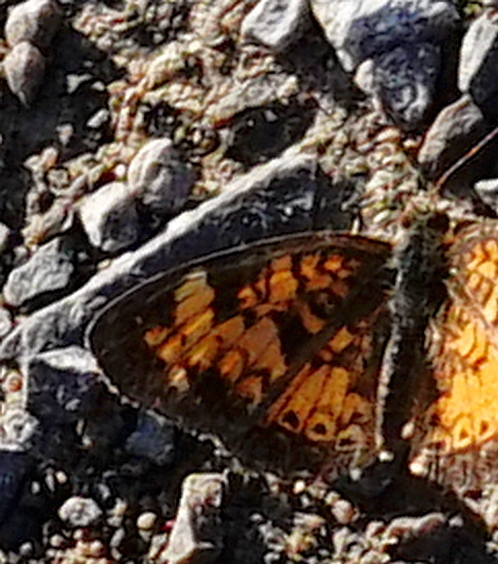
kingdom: Animalia
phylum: Arthropoda
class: Insecta
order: Lepidoptera
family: Nymphalidae
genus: Phyciodes
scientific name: Phyciodes tharos
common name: Pearl crescent
